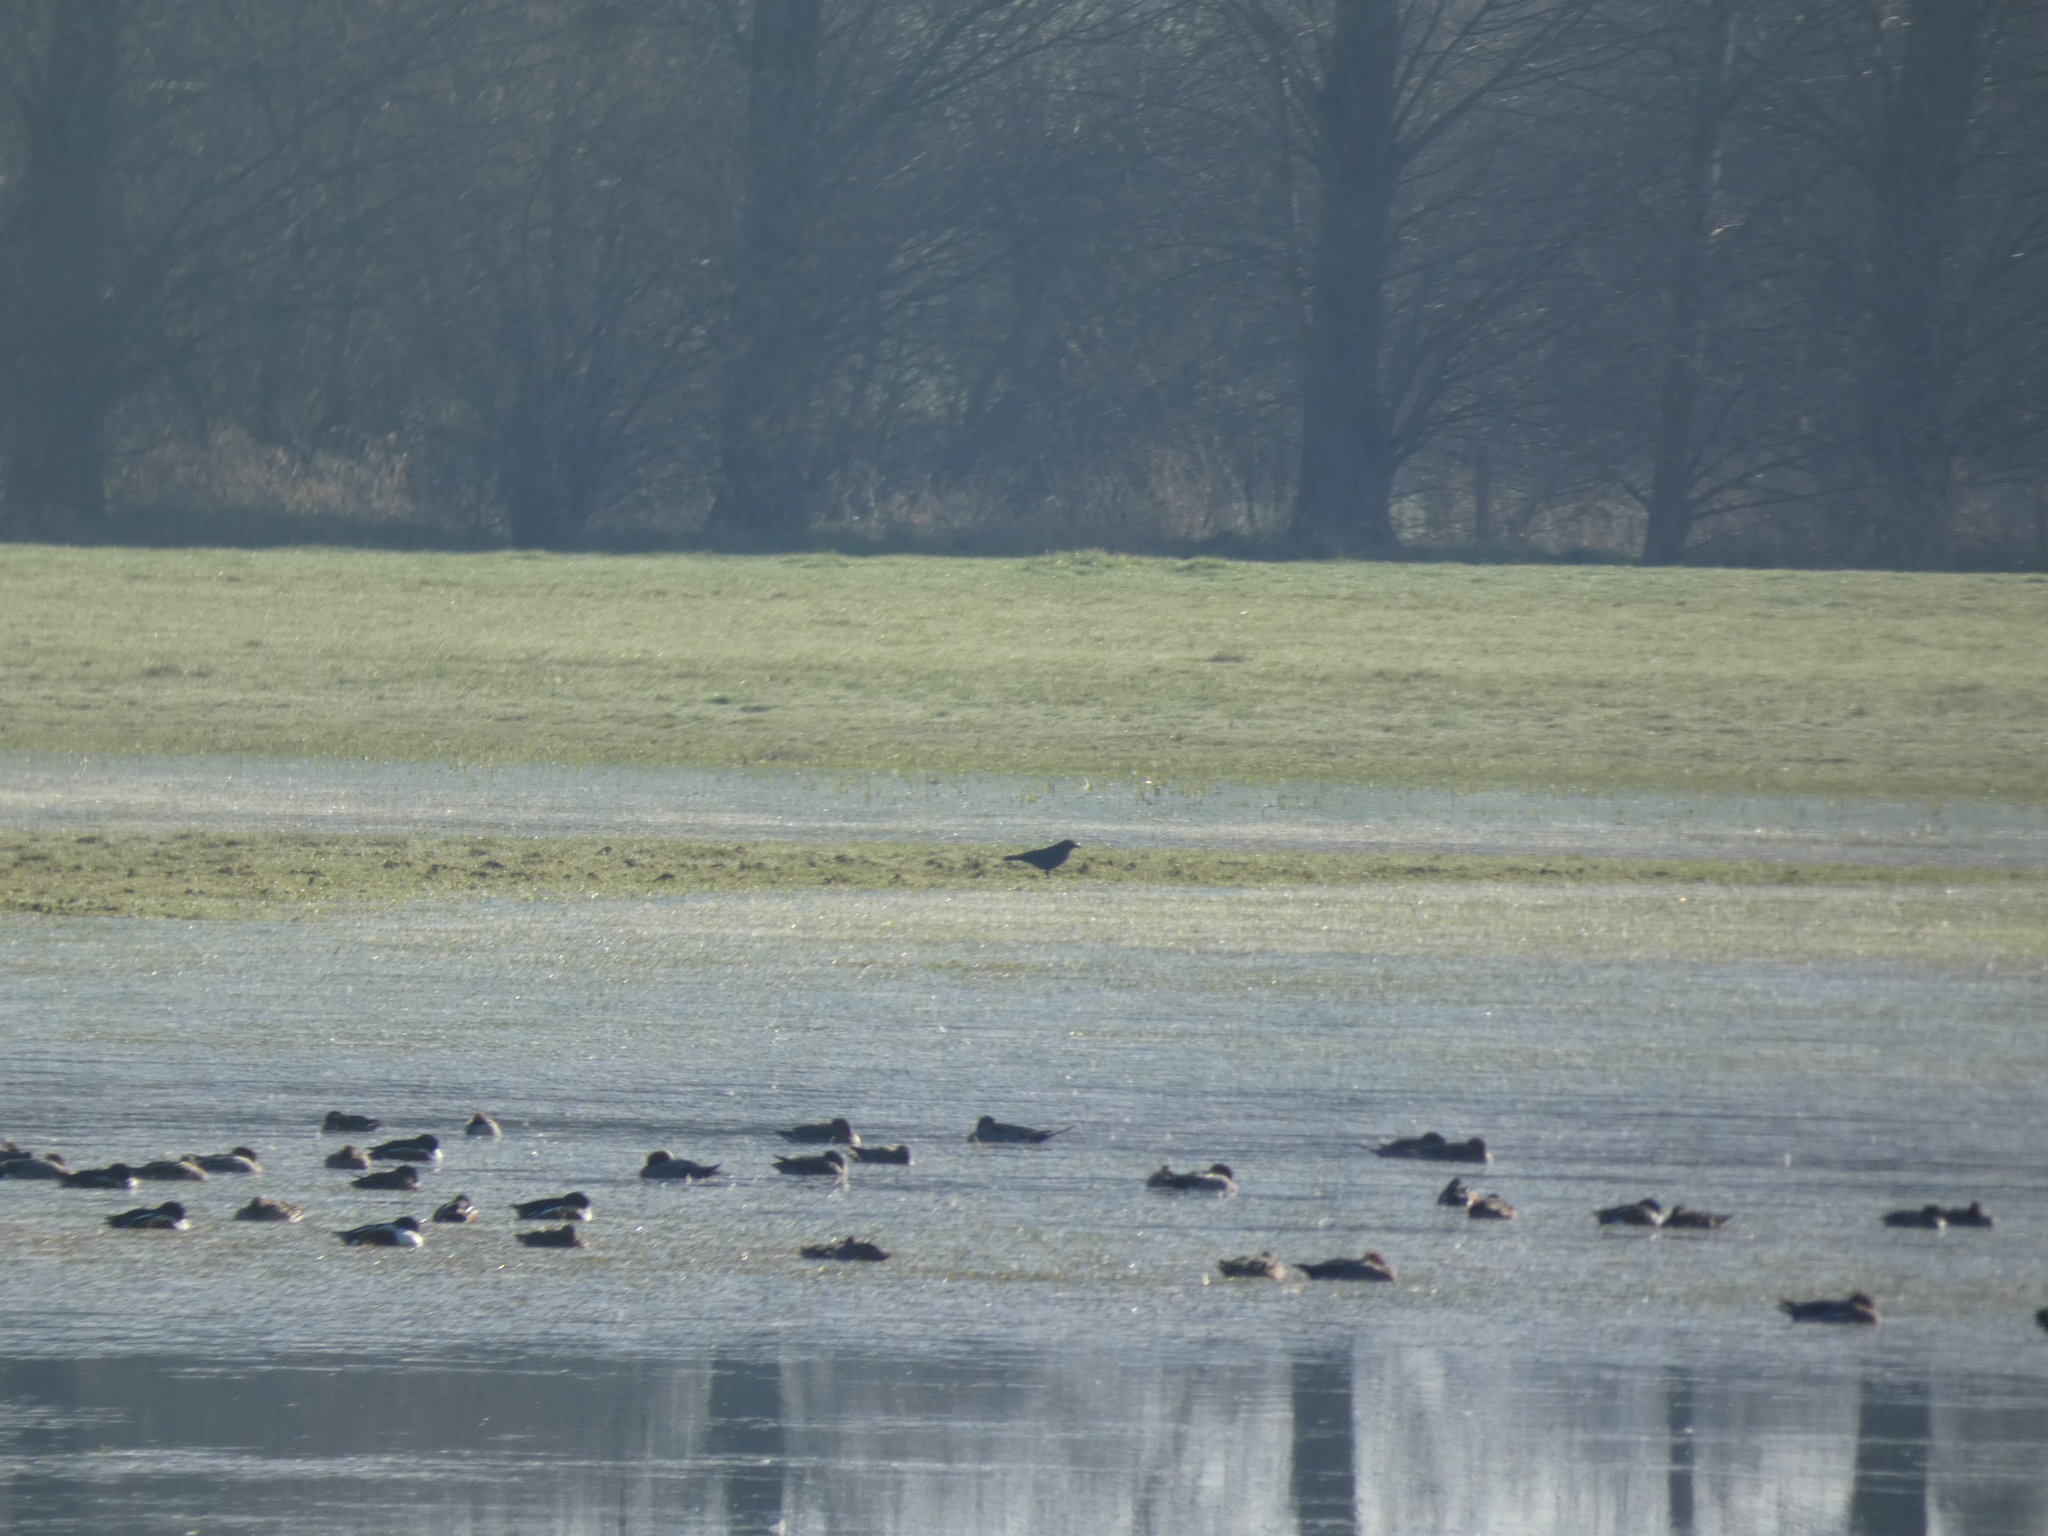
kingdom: Animalia
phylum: Chordata
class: Aves
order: Passeriformes
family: Corvidae
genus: Corvus
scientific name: Corvus corone
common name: Carrion crow
